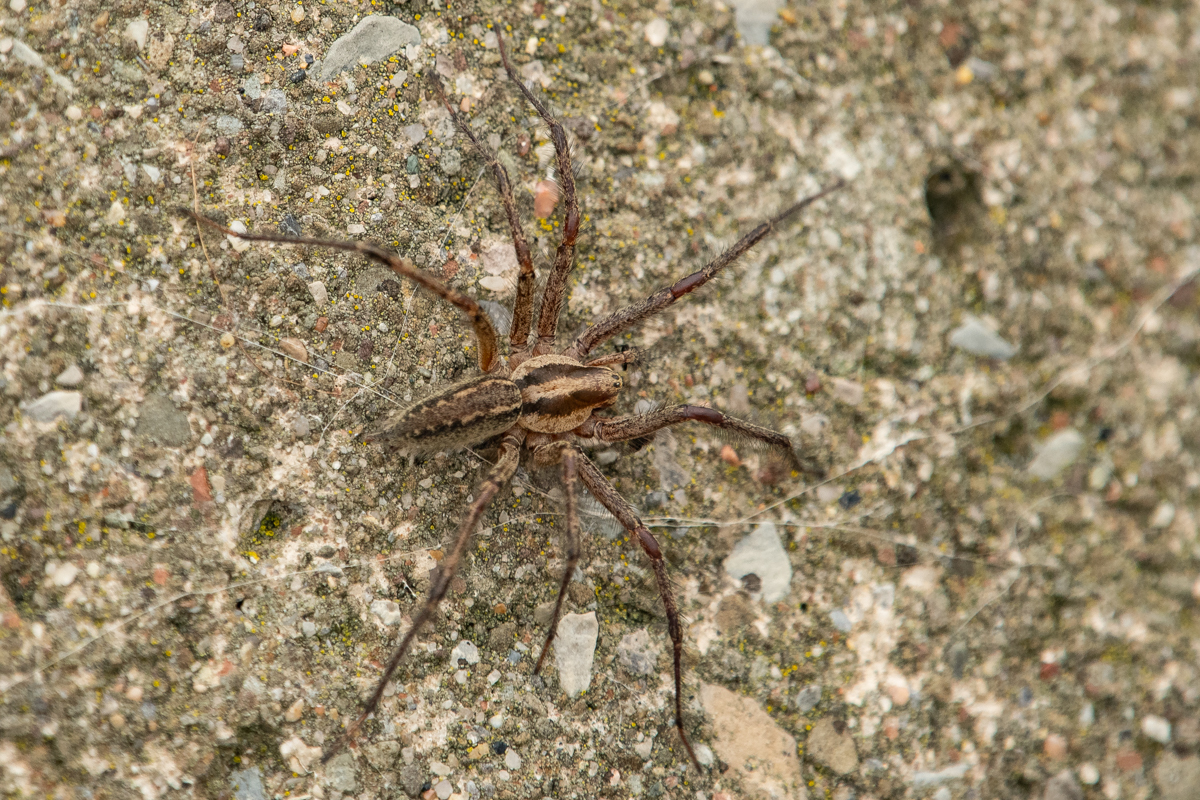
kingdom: Animalia
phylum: Arthropoda
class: Arachnida
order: Araneae
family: Agelenidae
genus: Agelenopsis
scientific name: Agelenopsis
